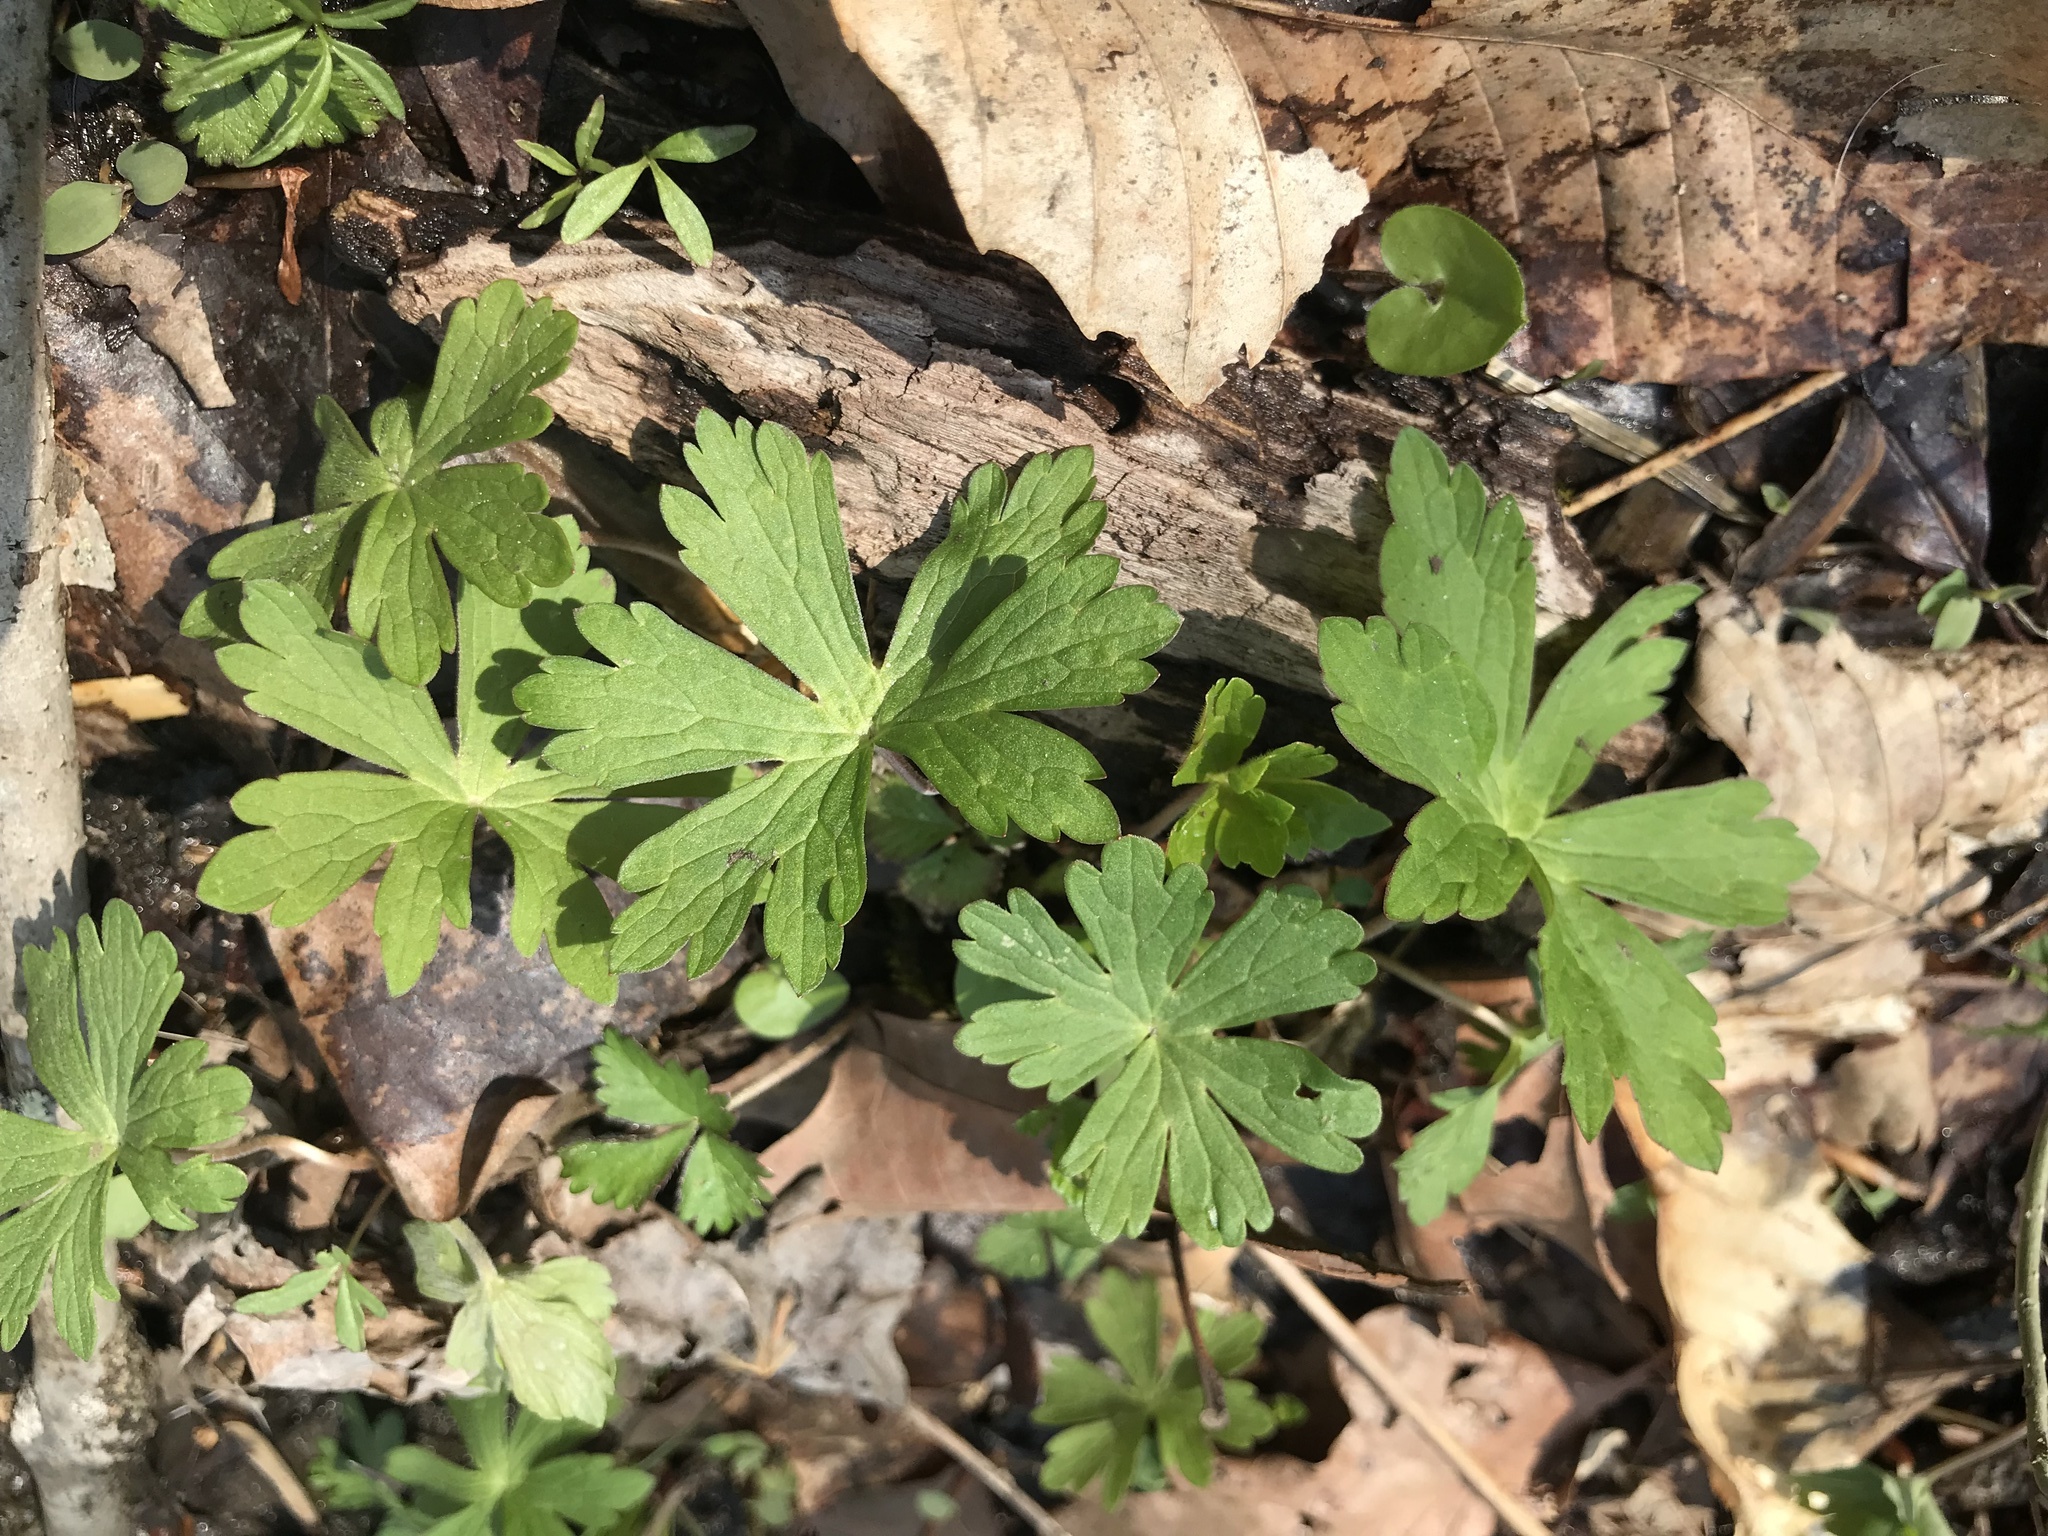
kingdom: Plantae
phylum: Tracheophyta
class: Magnoliopsida
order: Geraniales
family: Geraniaceae
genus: Geranium
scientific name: Geranium maculatum
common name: Spotted geranium
